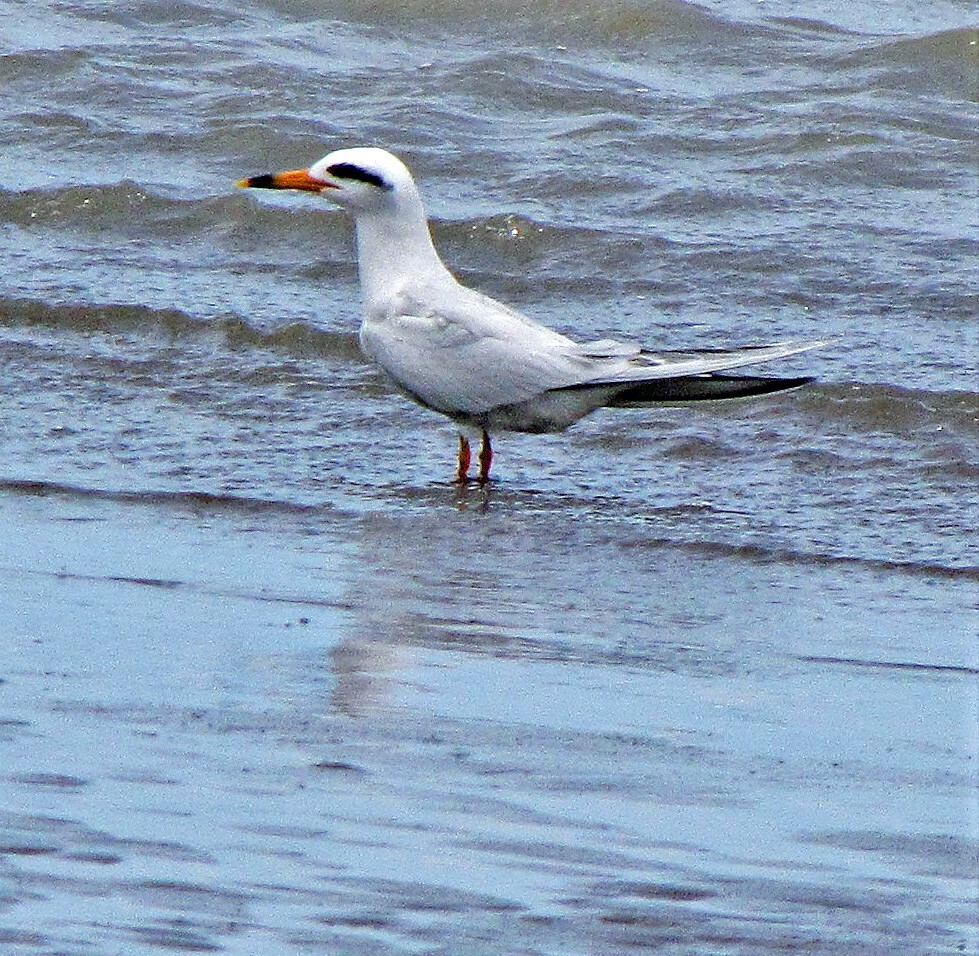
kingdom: Animalia
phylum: Chordata
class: Aves
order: Charadriiformes
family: Laridae
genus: Sterna
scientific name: Sterna trudeaui
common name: Snowy-crowned tern
